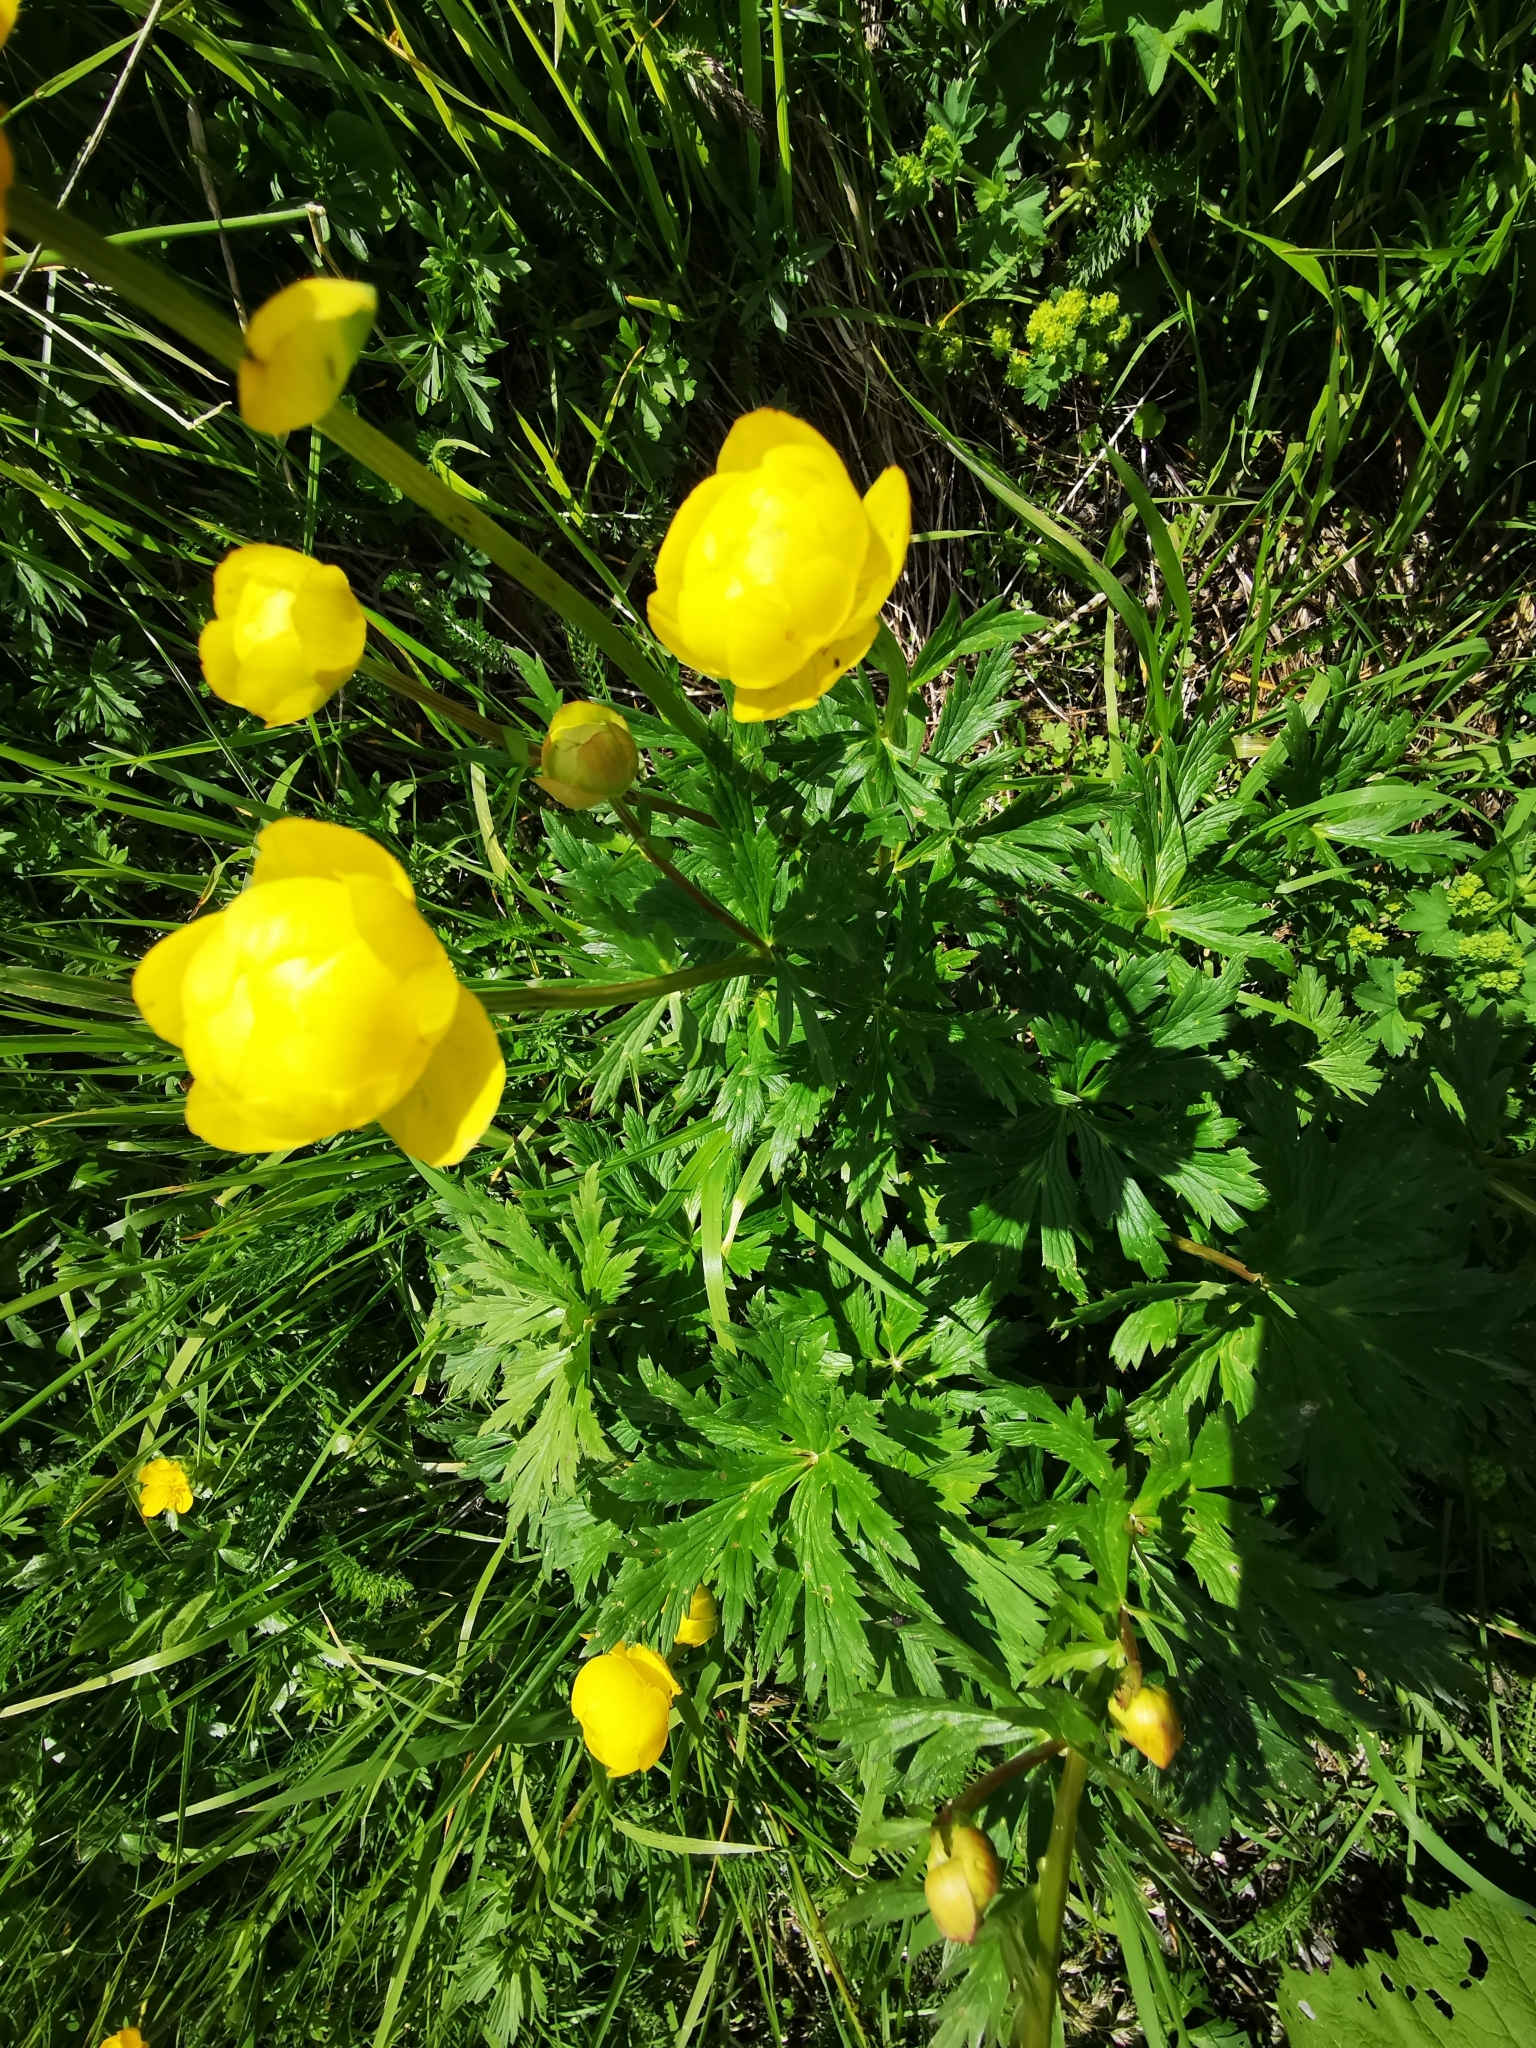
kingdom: Plantae
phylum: Tracheophyta
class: Magnoliopsida
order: Ranunculales
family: Ranunculaceae
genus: Trollius
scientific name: Trollius europaeus
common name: European globeflower
